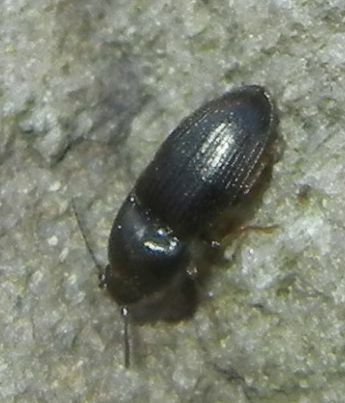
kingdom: Animalia
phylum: Arthropoda
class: Insecta
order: Coleoptera
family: Elateridae
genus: Hypnoidus
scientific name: Hypnoidus riparius
